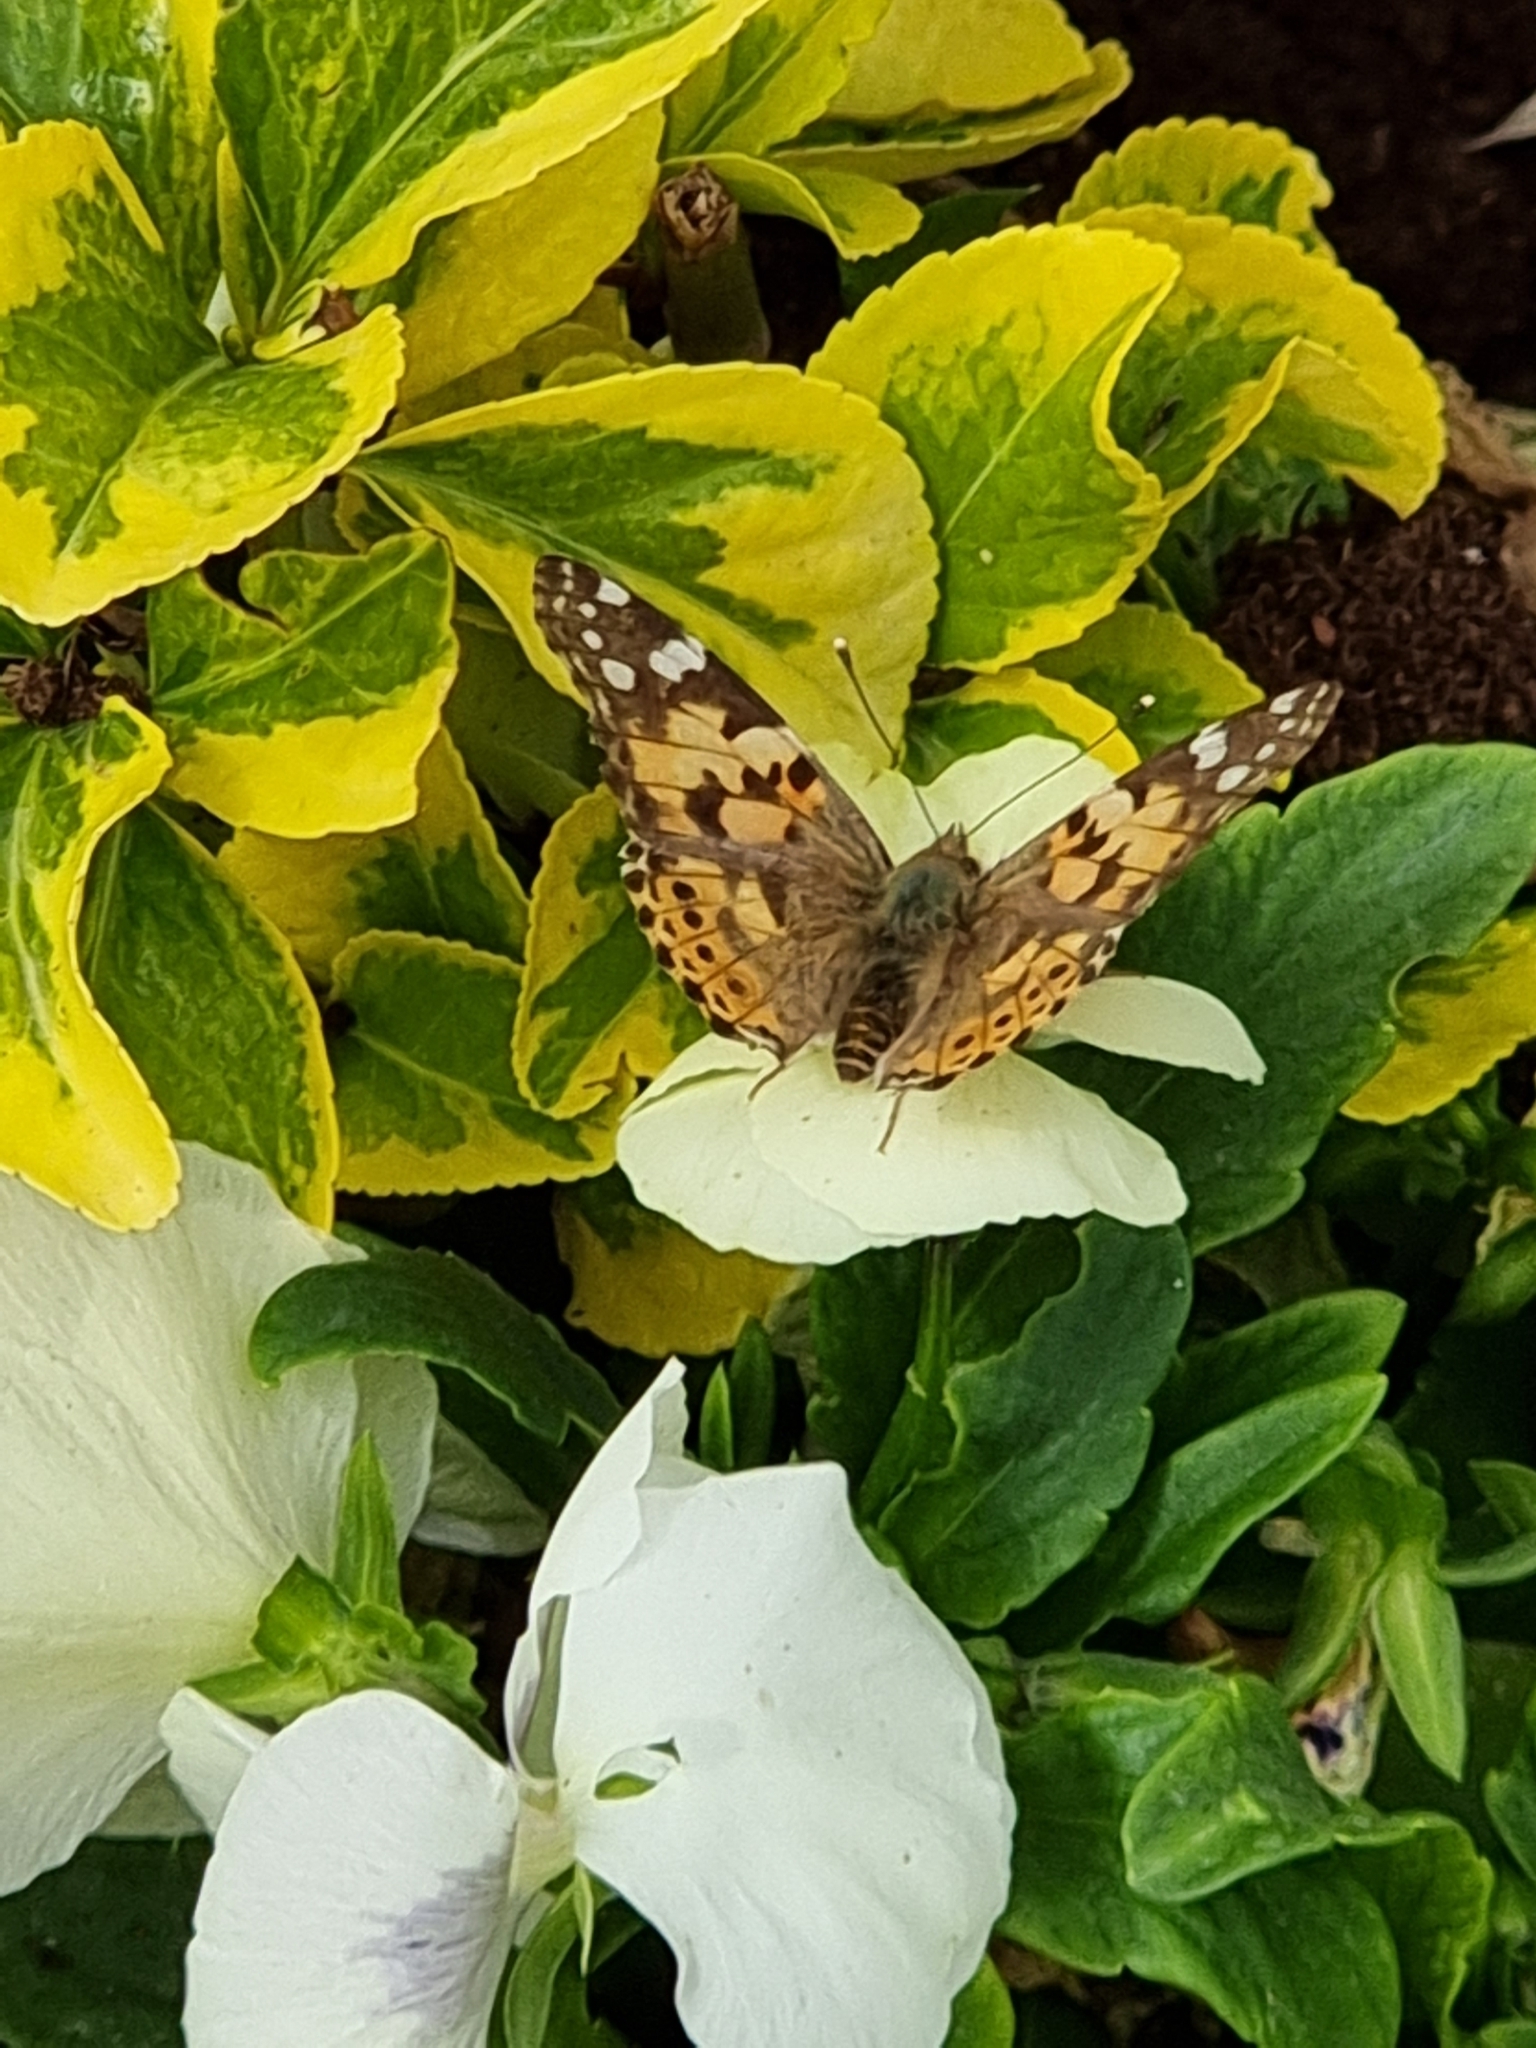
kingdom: Animalia
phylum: Arthropoda
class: Insecta
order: Lepidoptera
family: Nymphalidae
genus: Vanessa
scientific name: Vanessa cardui
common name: Painted lady
